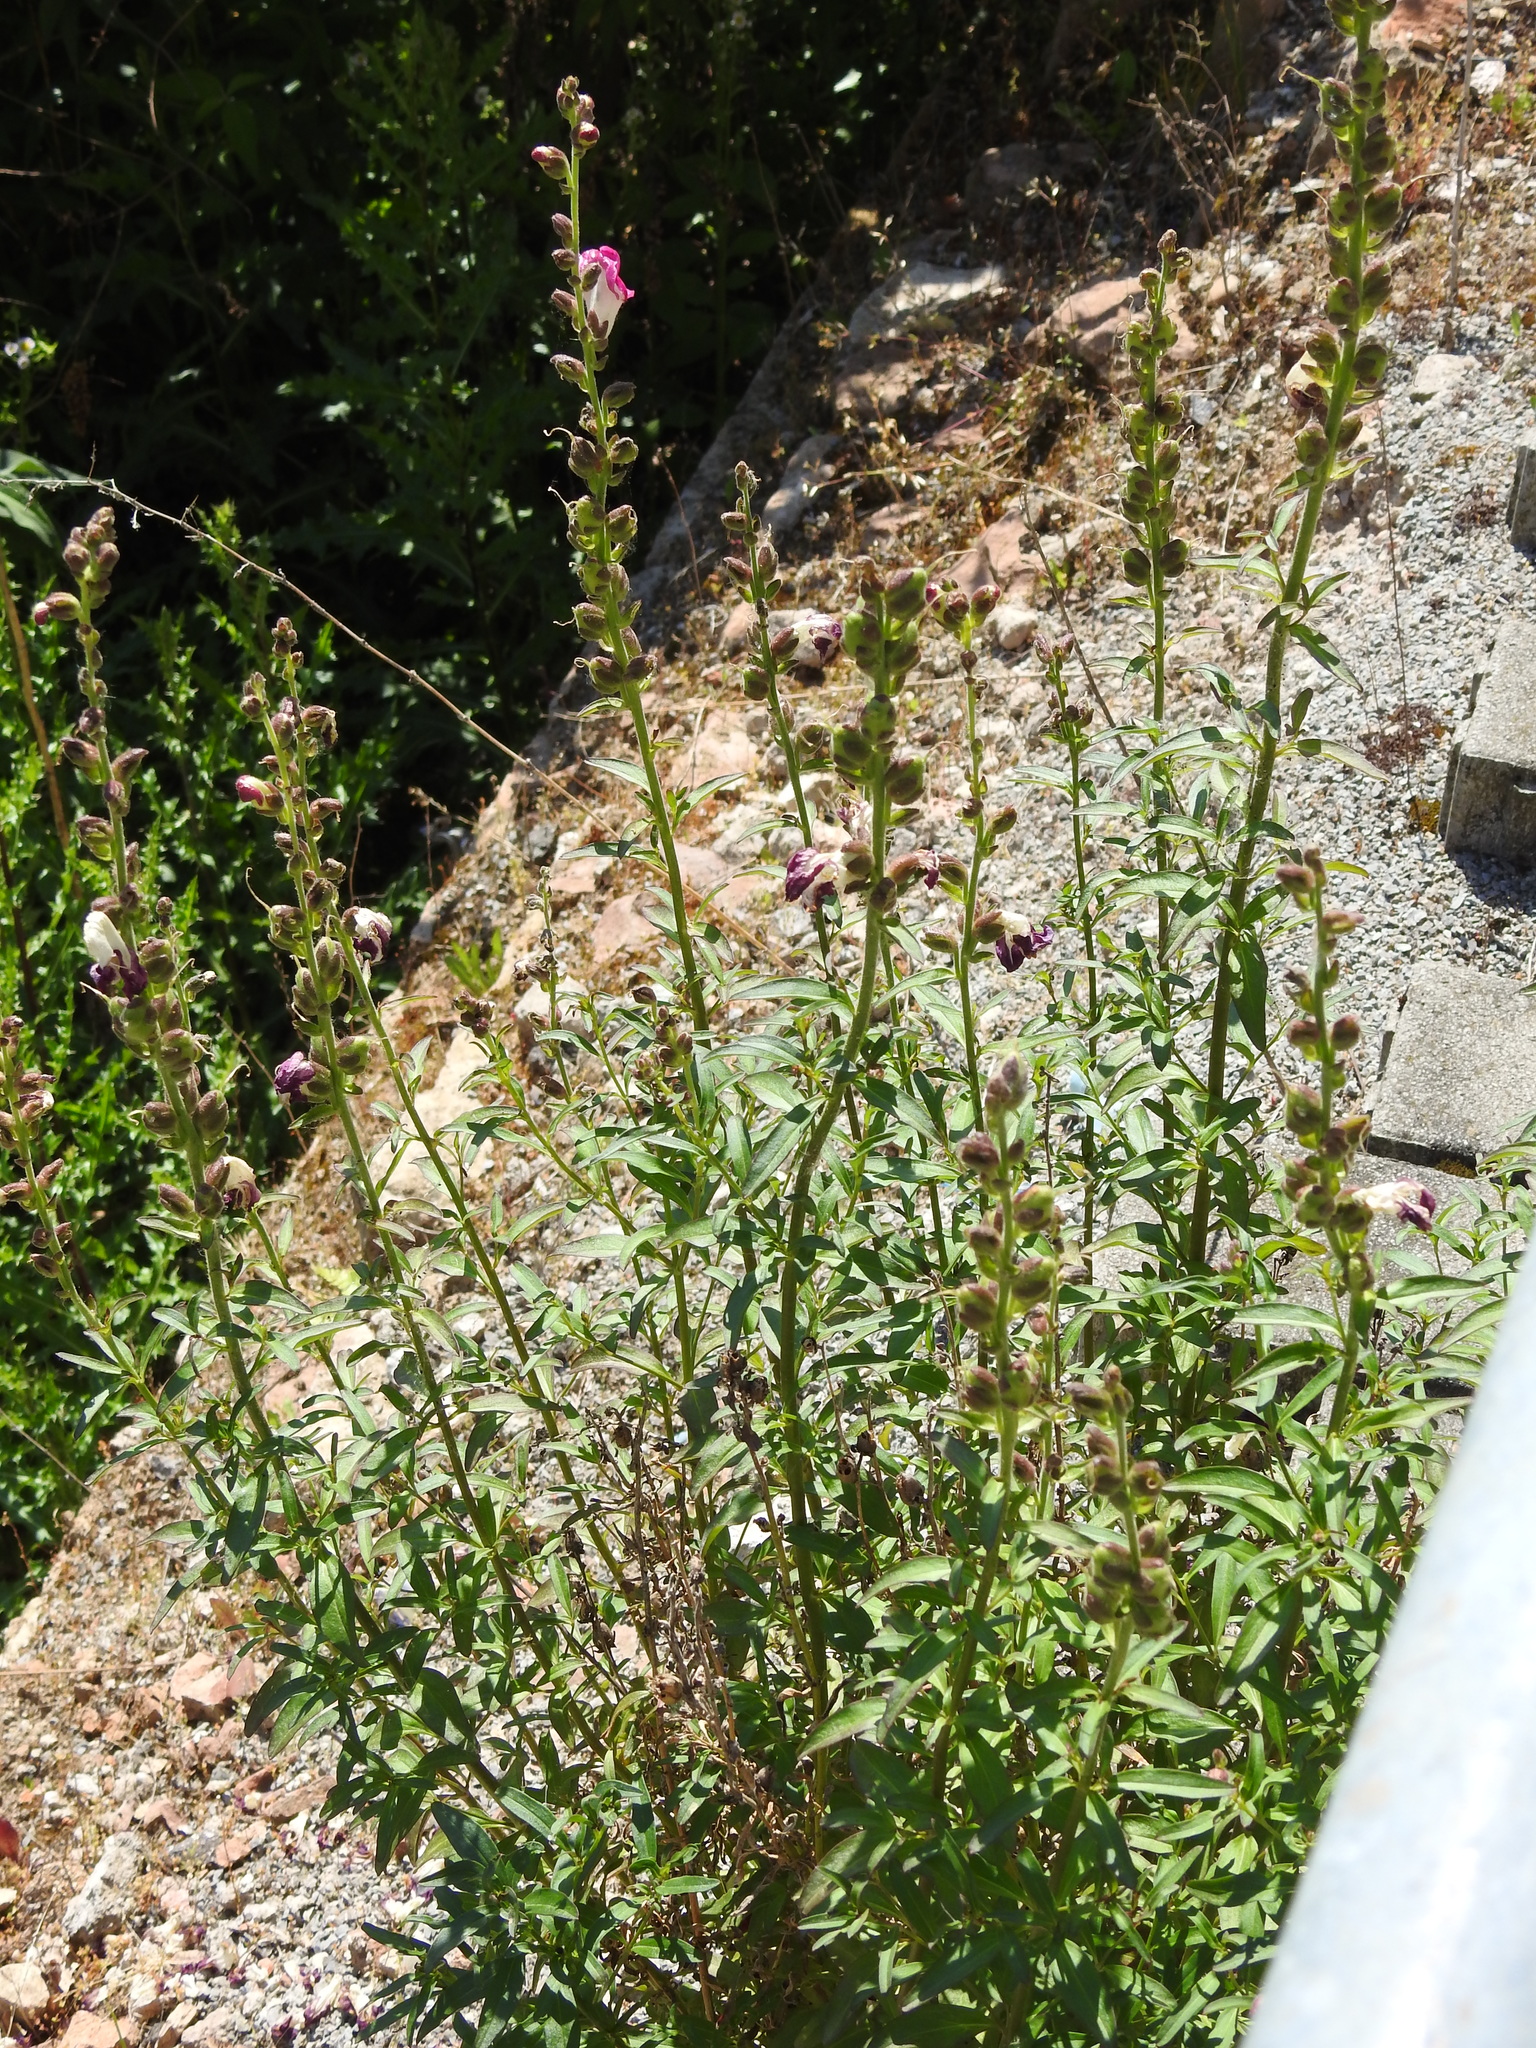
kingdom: Plantae
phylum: Tracheophyta
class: Magnoliopsida
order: Lamiales
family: Plantaginaceae
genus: Antirrhinum
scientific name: Antirrhinum majus
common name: Snapdragon
